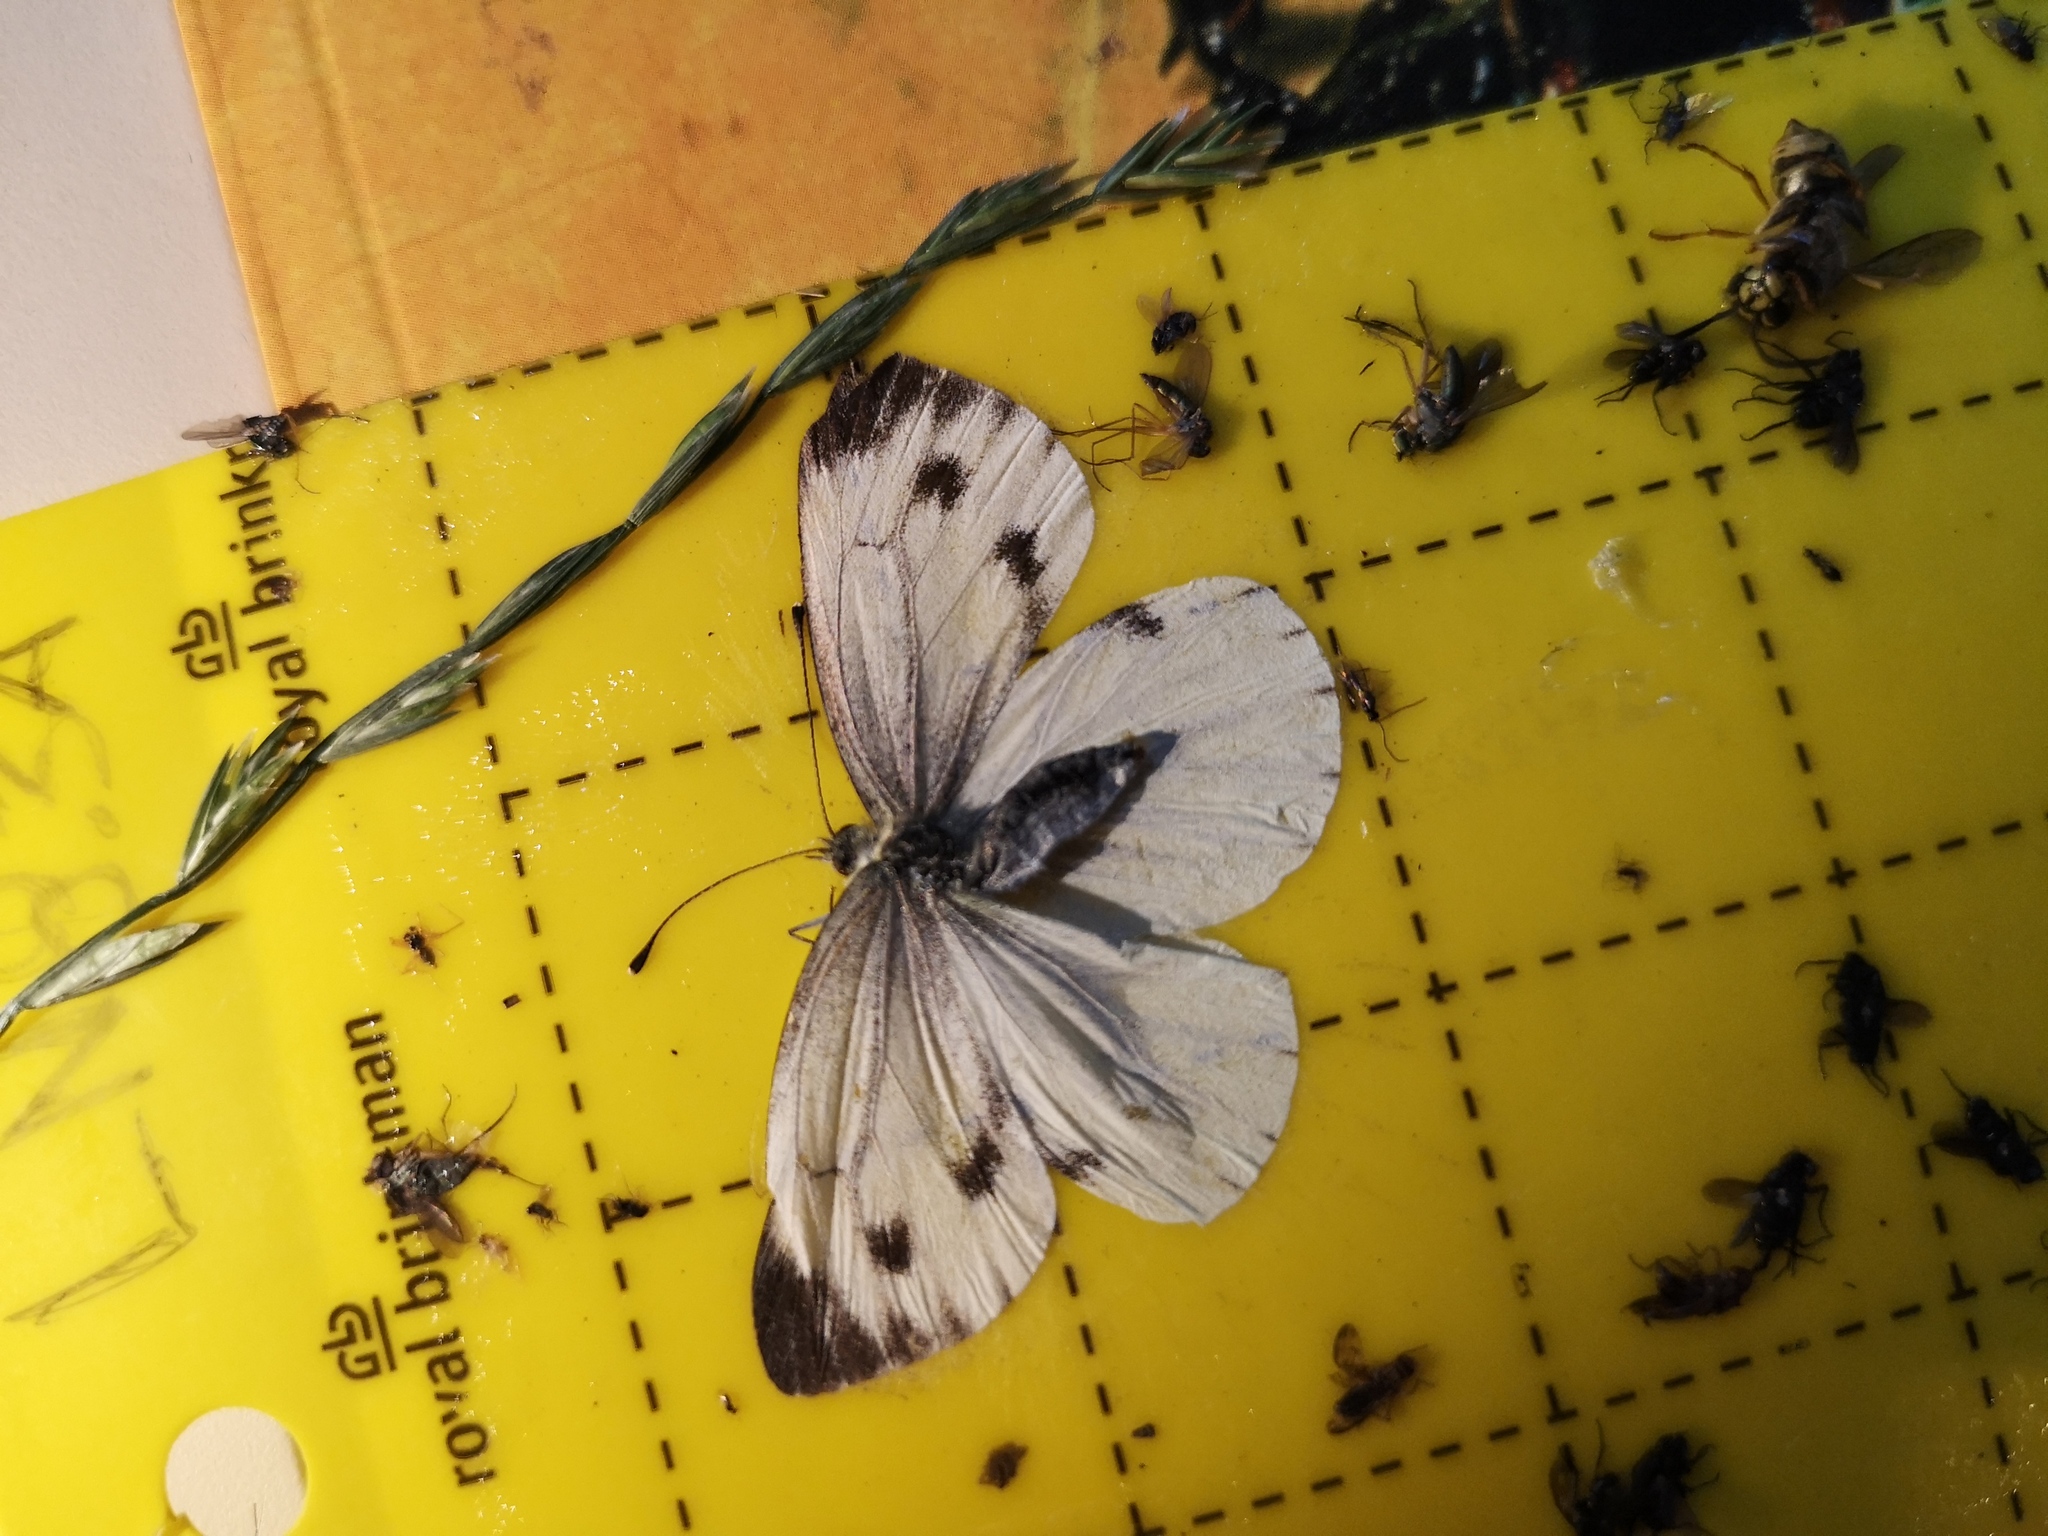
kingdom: Animalia
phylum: Arthropoda
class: Insecta
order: Lepidoptera
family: Pieridae
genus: Pieris
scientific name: Pieris napi
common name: Green-veined white
